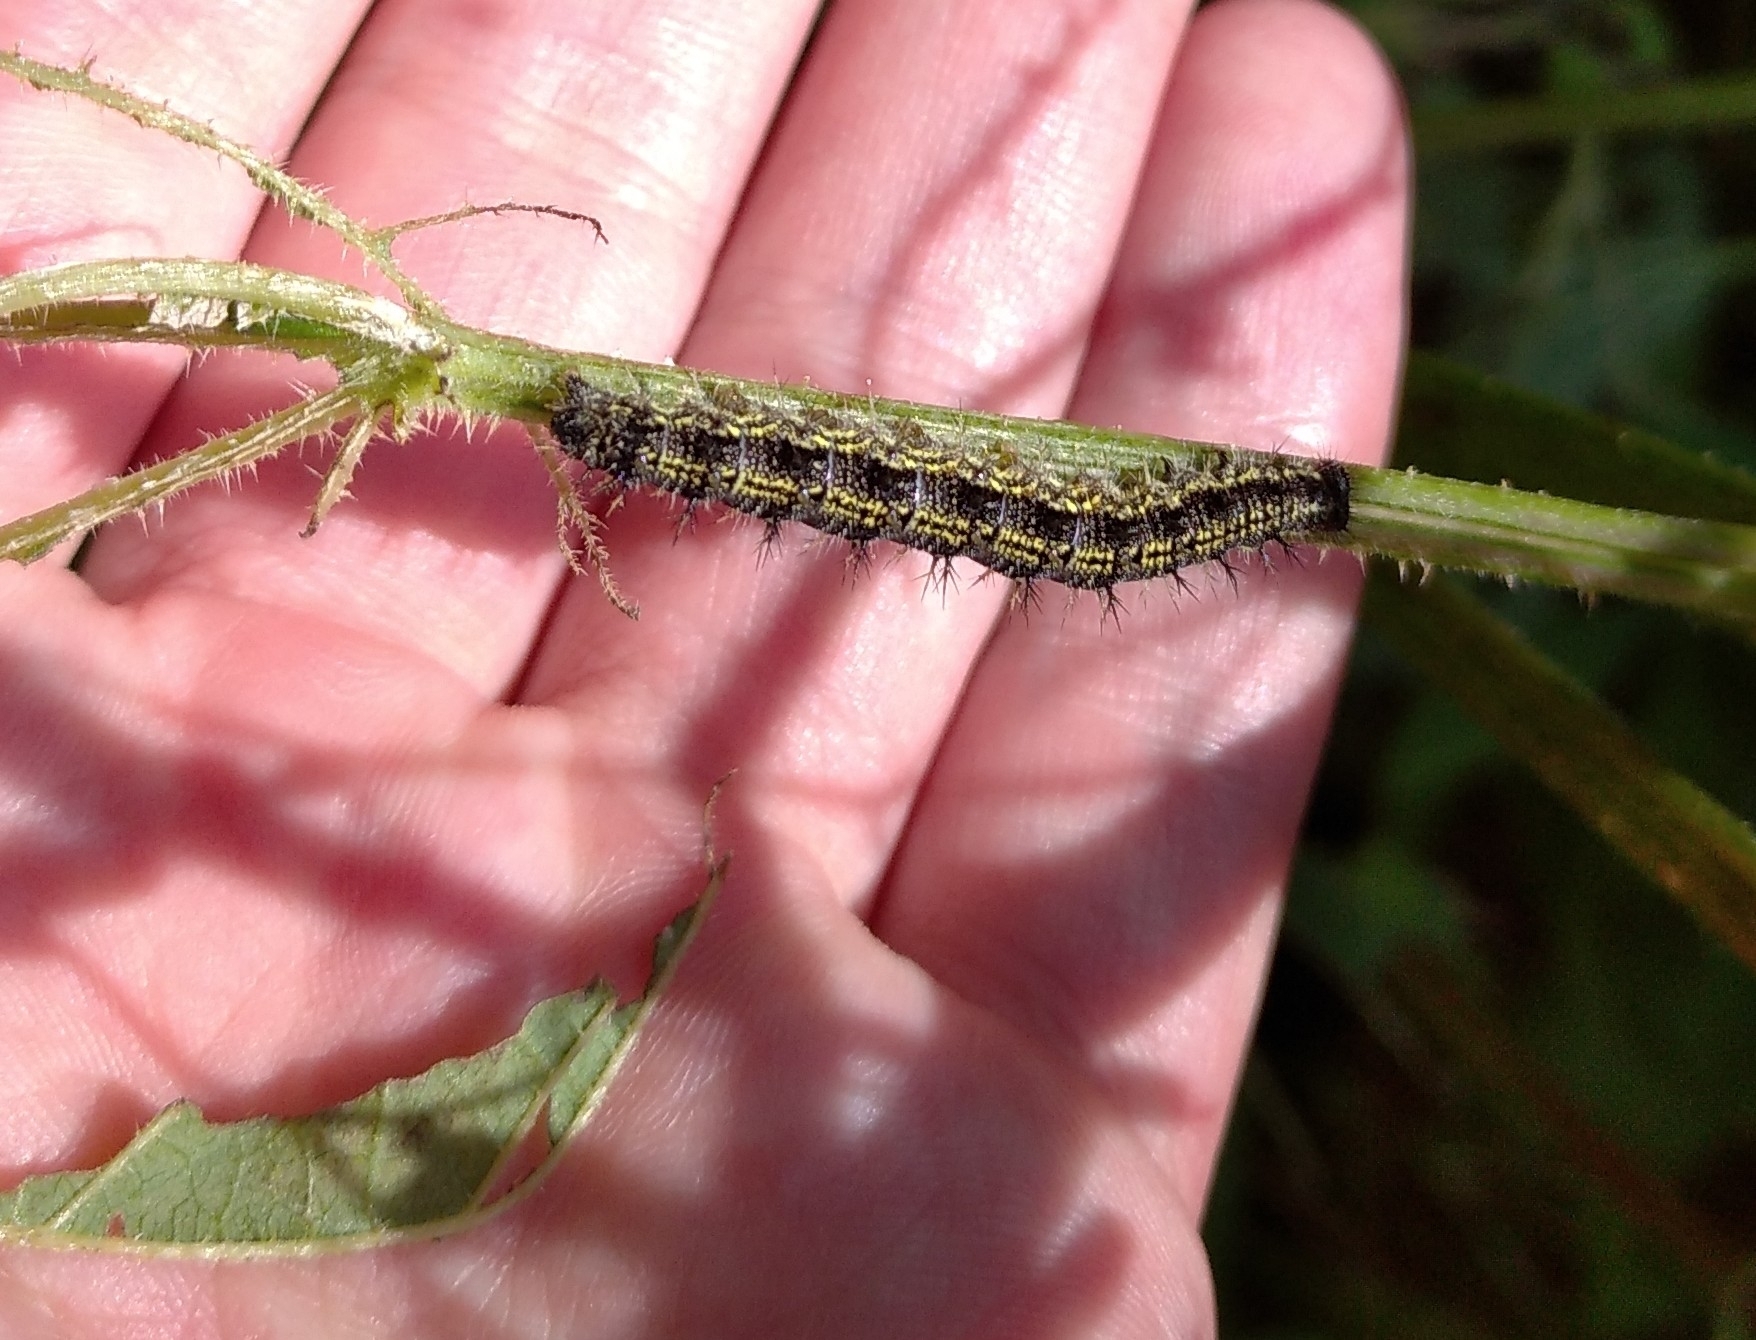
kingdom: Animalia
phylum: Arthropoda
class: Insecta
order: Lepidoptera
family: Nymphalidae
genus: Aglais
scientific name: Aglais urticae
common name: Small tortoiseshell
